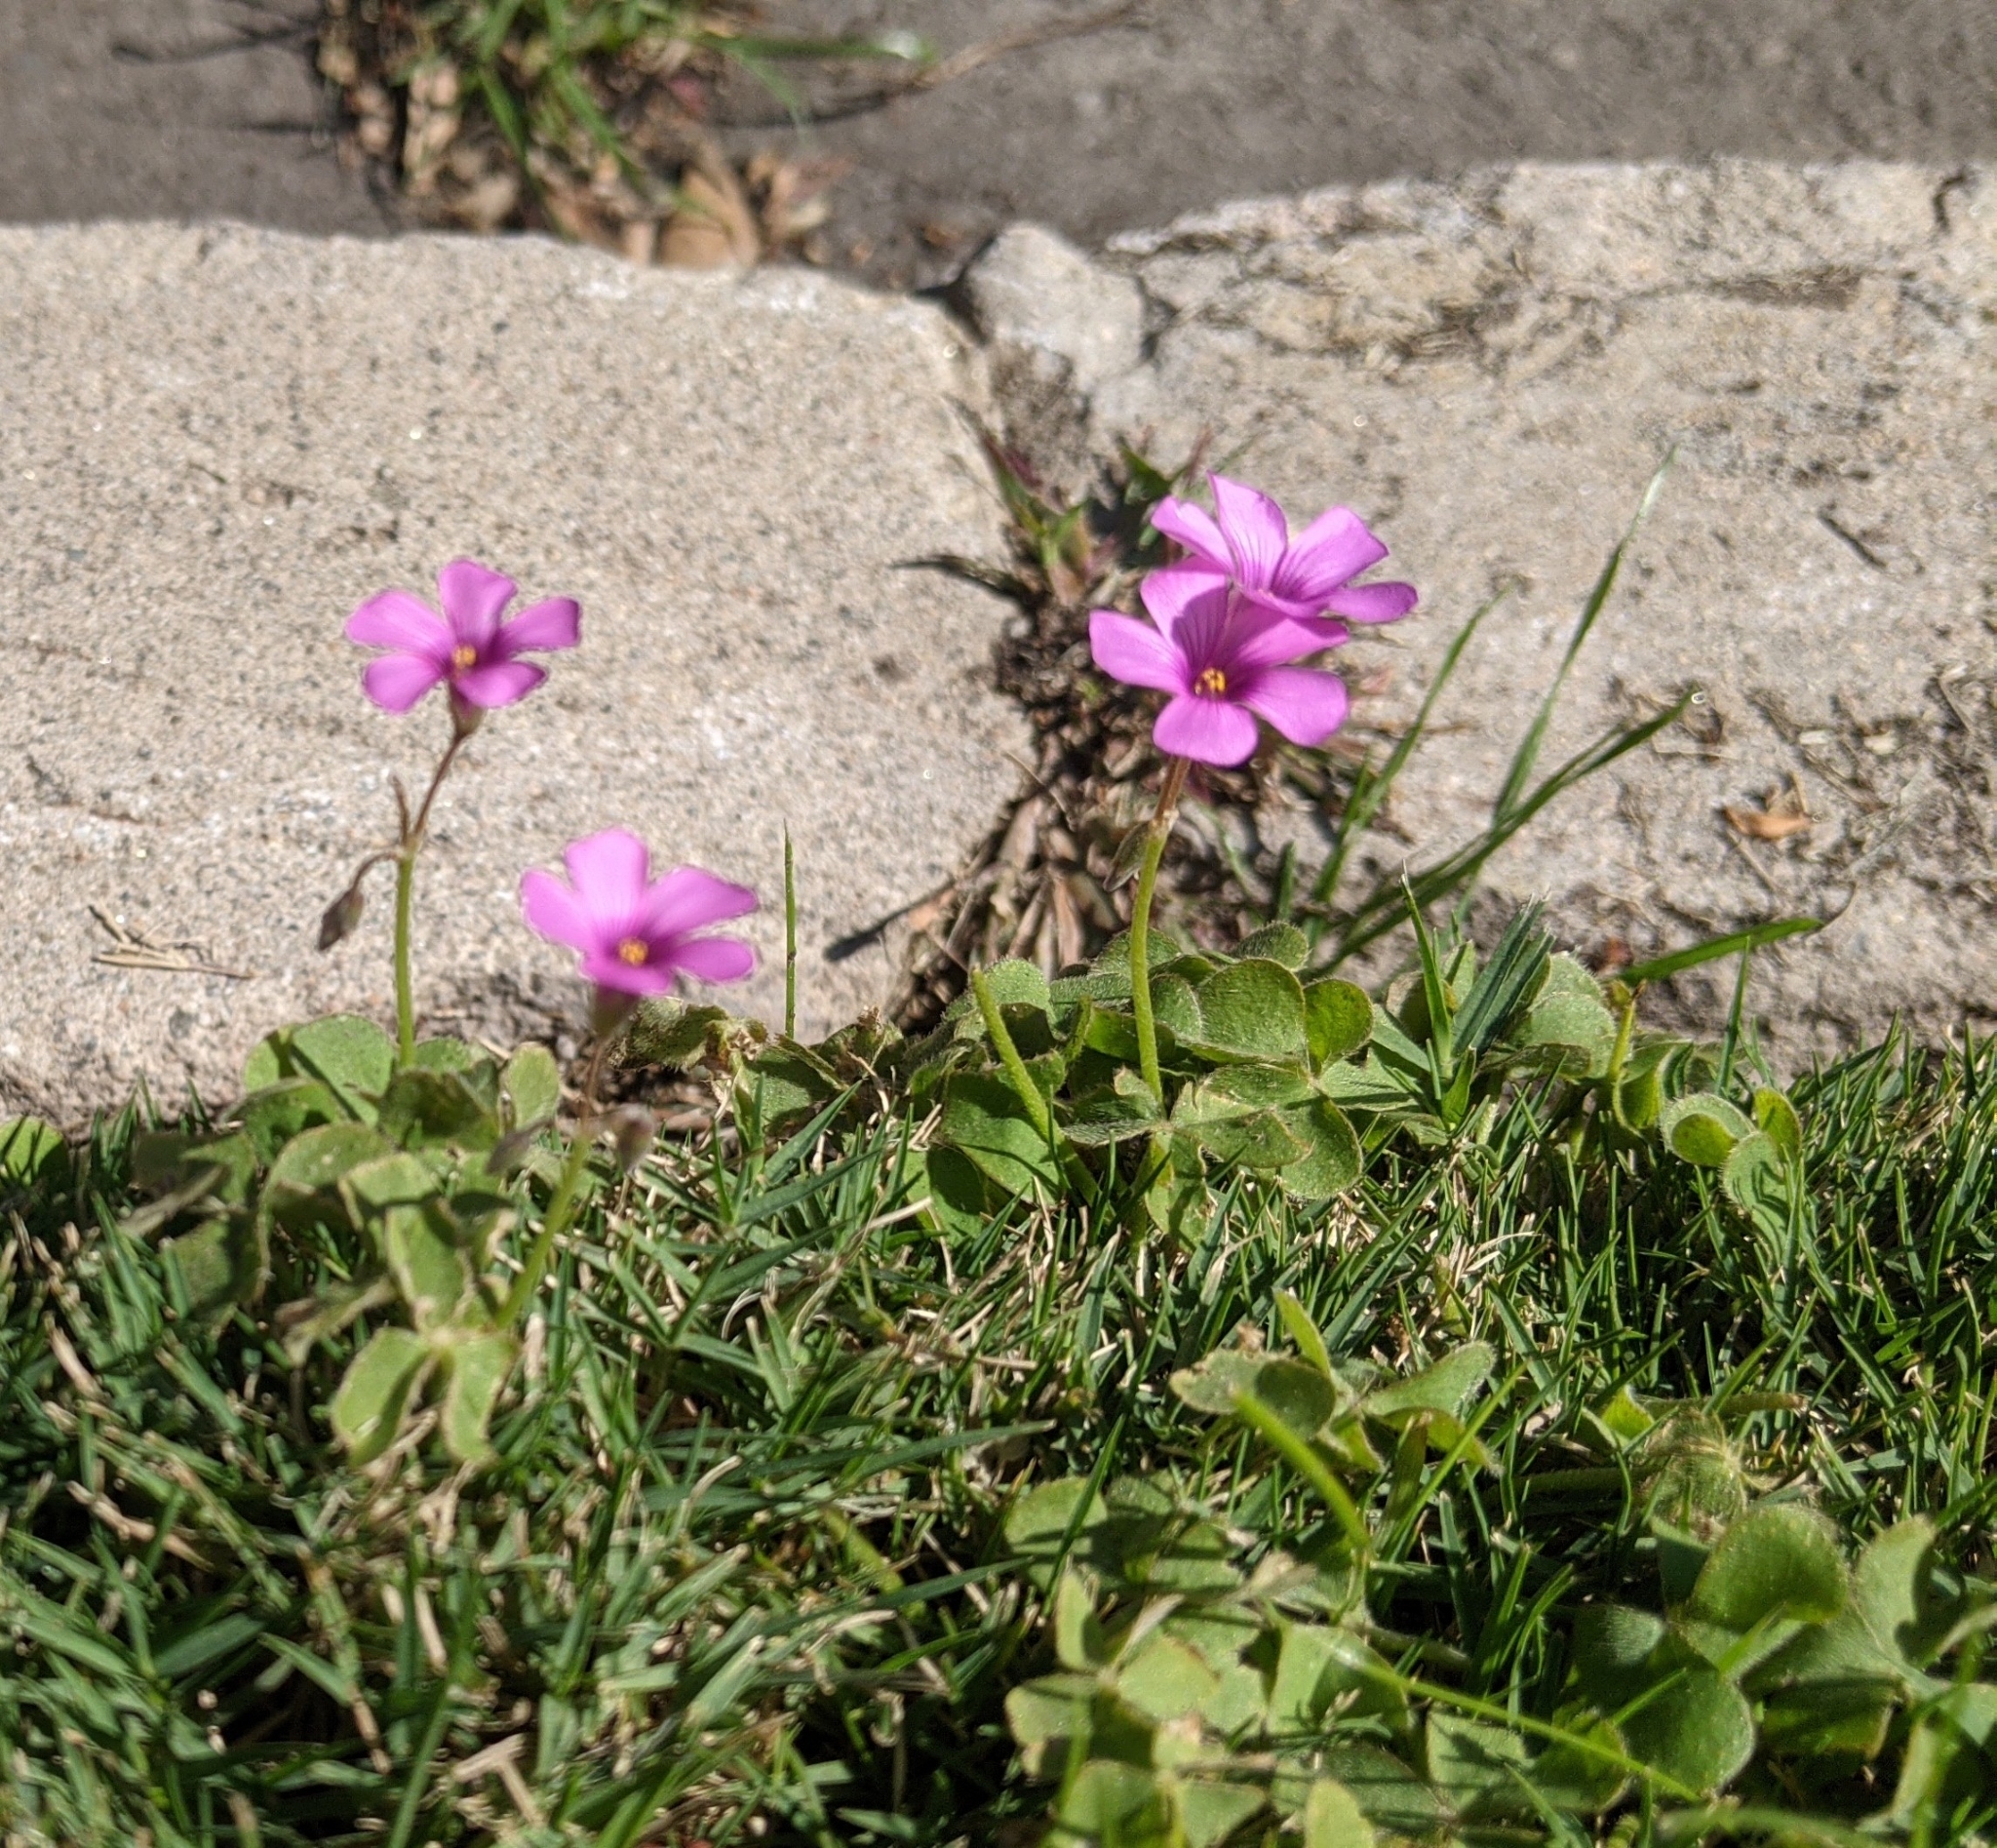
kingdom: Plantae
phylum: Tracheophyta
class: Magnoliopsida
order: Oxalidales
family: Oxalidaceae
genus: Oxalis
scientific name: Oxalis articulata
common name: Pink-sorrel
